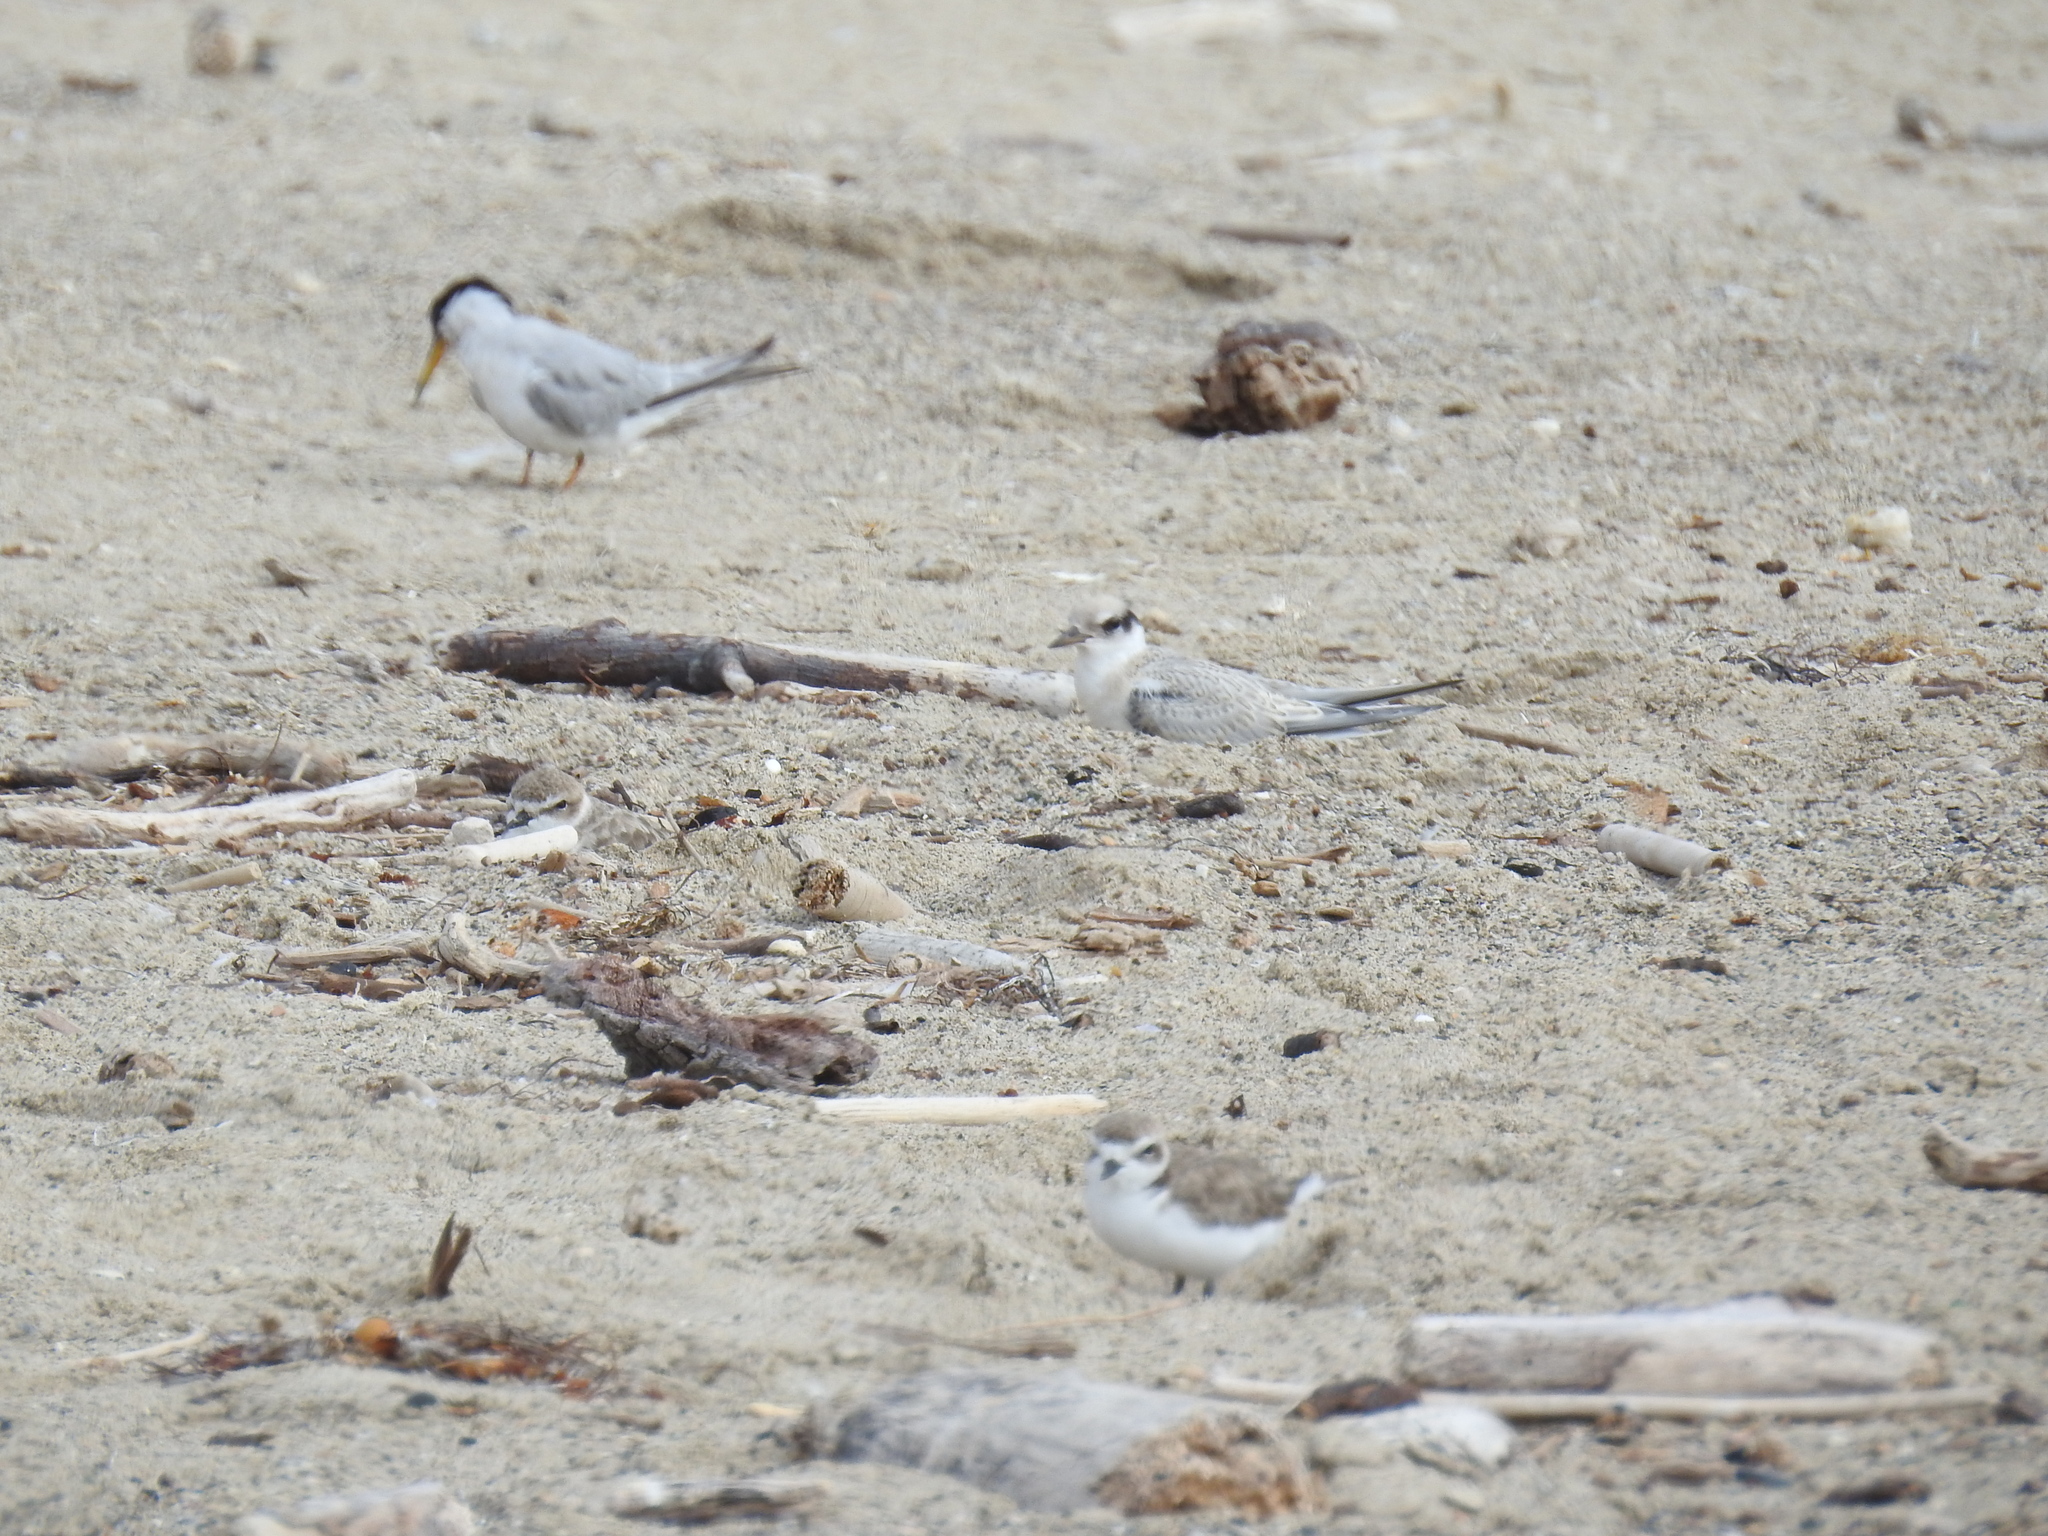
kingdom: Animalia
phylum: Chordata
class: Aves
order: Charadriiformes
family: Laridae
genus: Sternula
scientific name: Sternula antillarum
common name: Least tern
